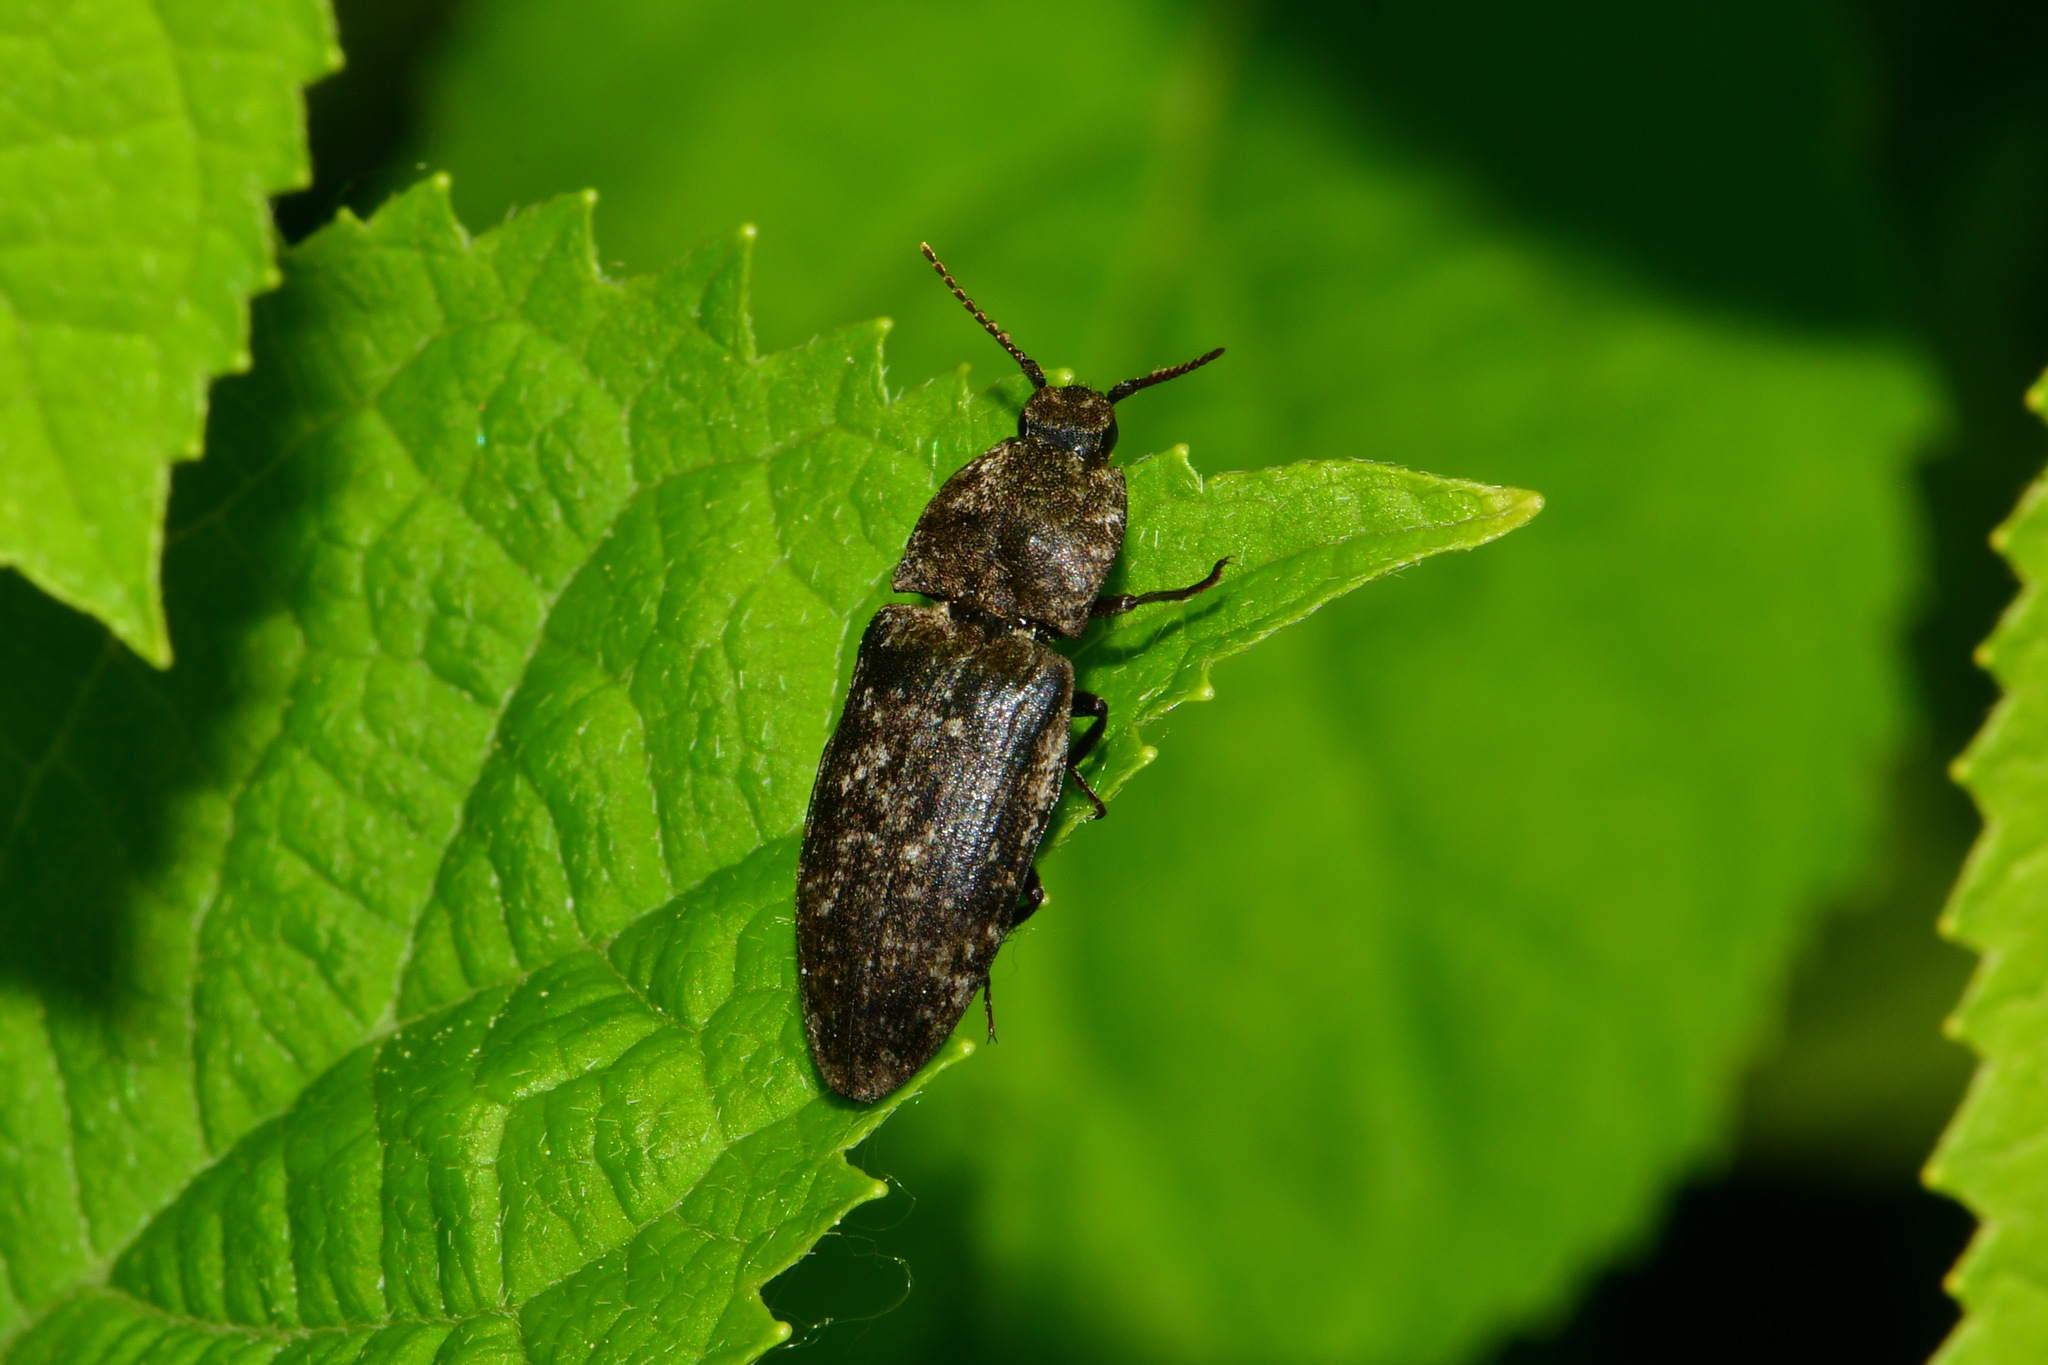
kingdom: Animalia
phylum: Arthropoda
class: Insecta
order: Coleoptera
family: Elateridae
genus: Agrypnus
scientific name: Agrypnus murinus
